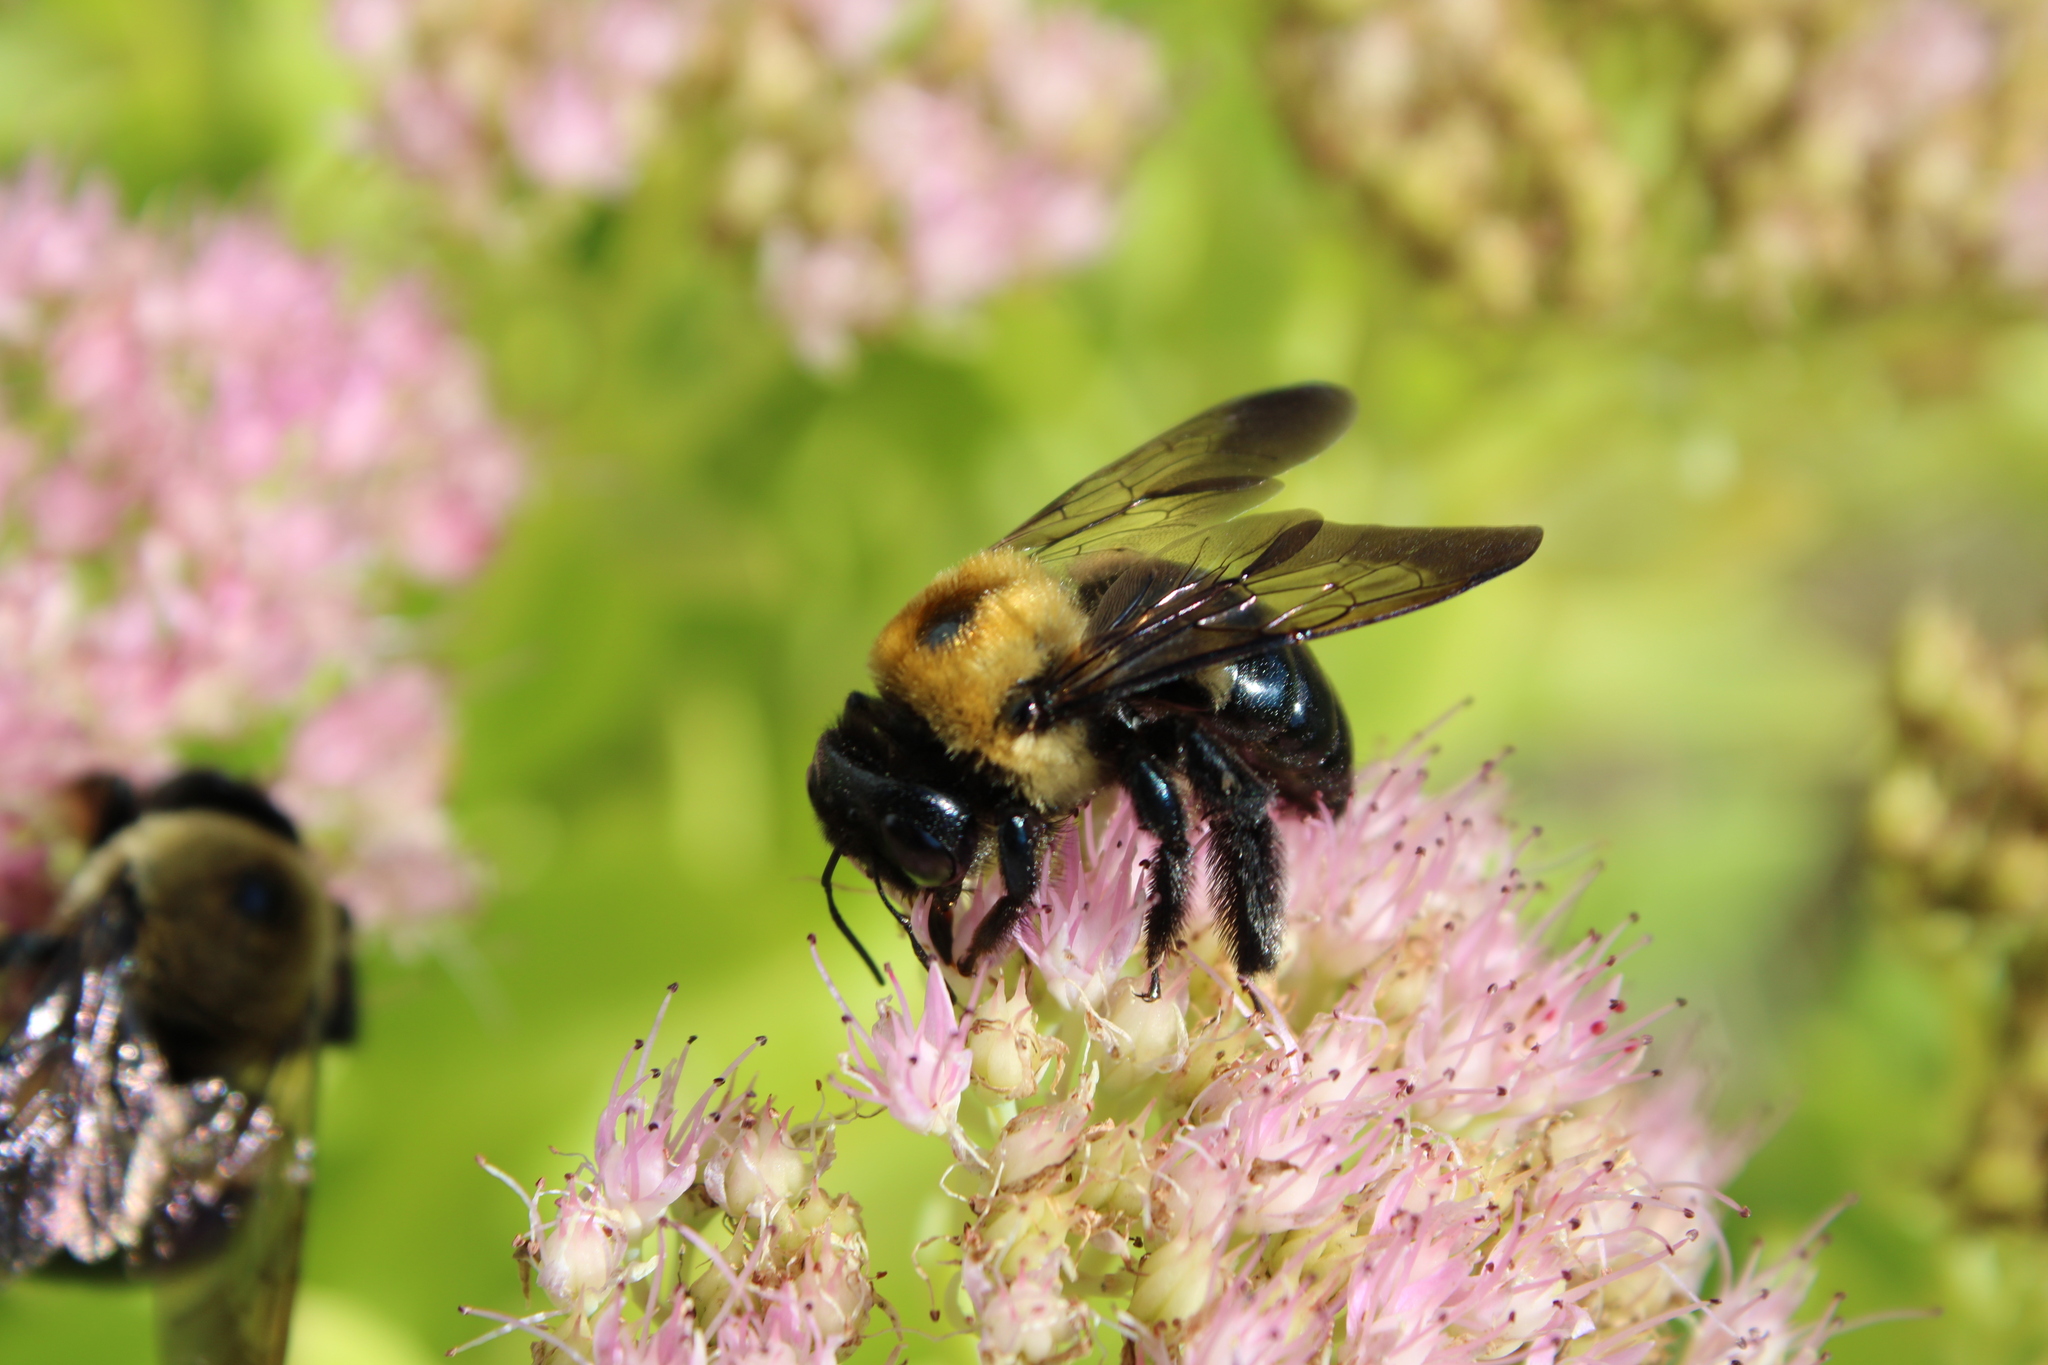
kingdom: Animalia
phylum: Arthropoda
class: Insecta
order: Hymenoptera
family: Apidae
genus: Xylocopa
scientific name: Xylocopa virginica
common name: Carpenter bee
